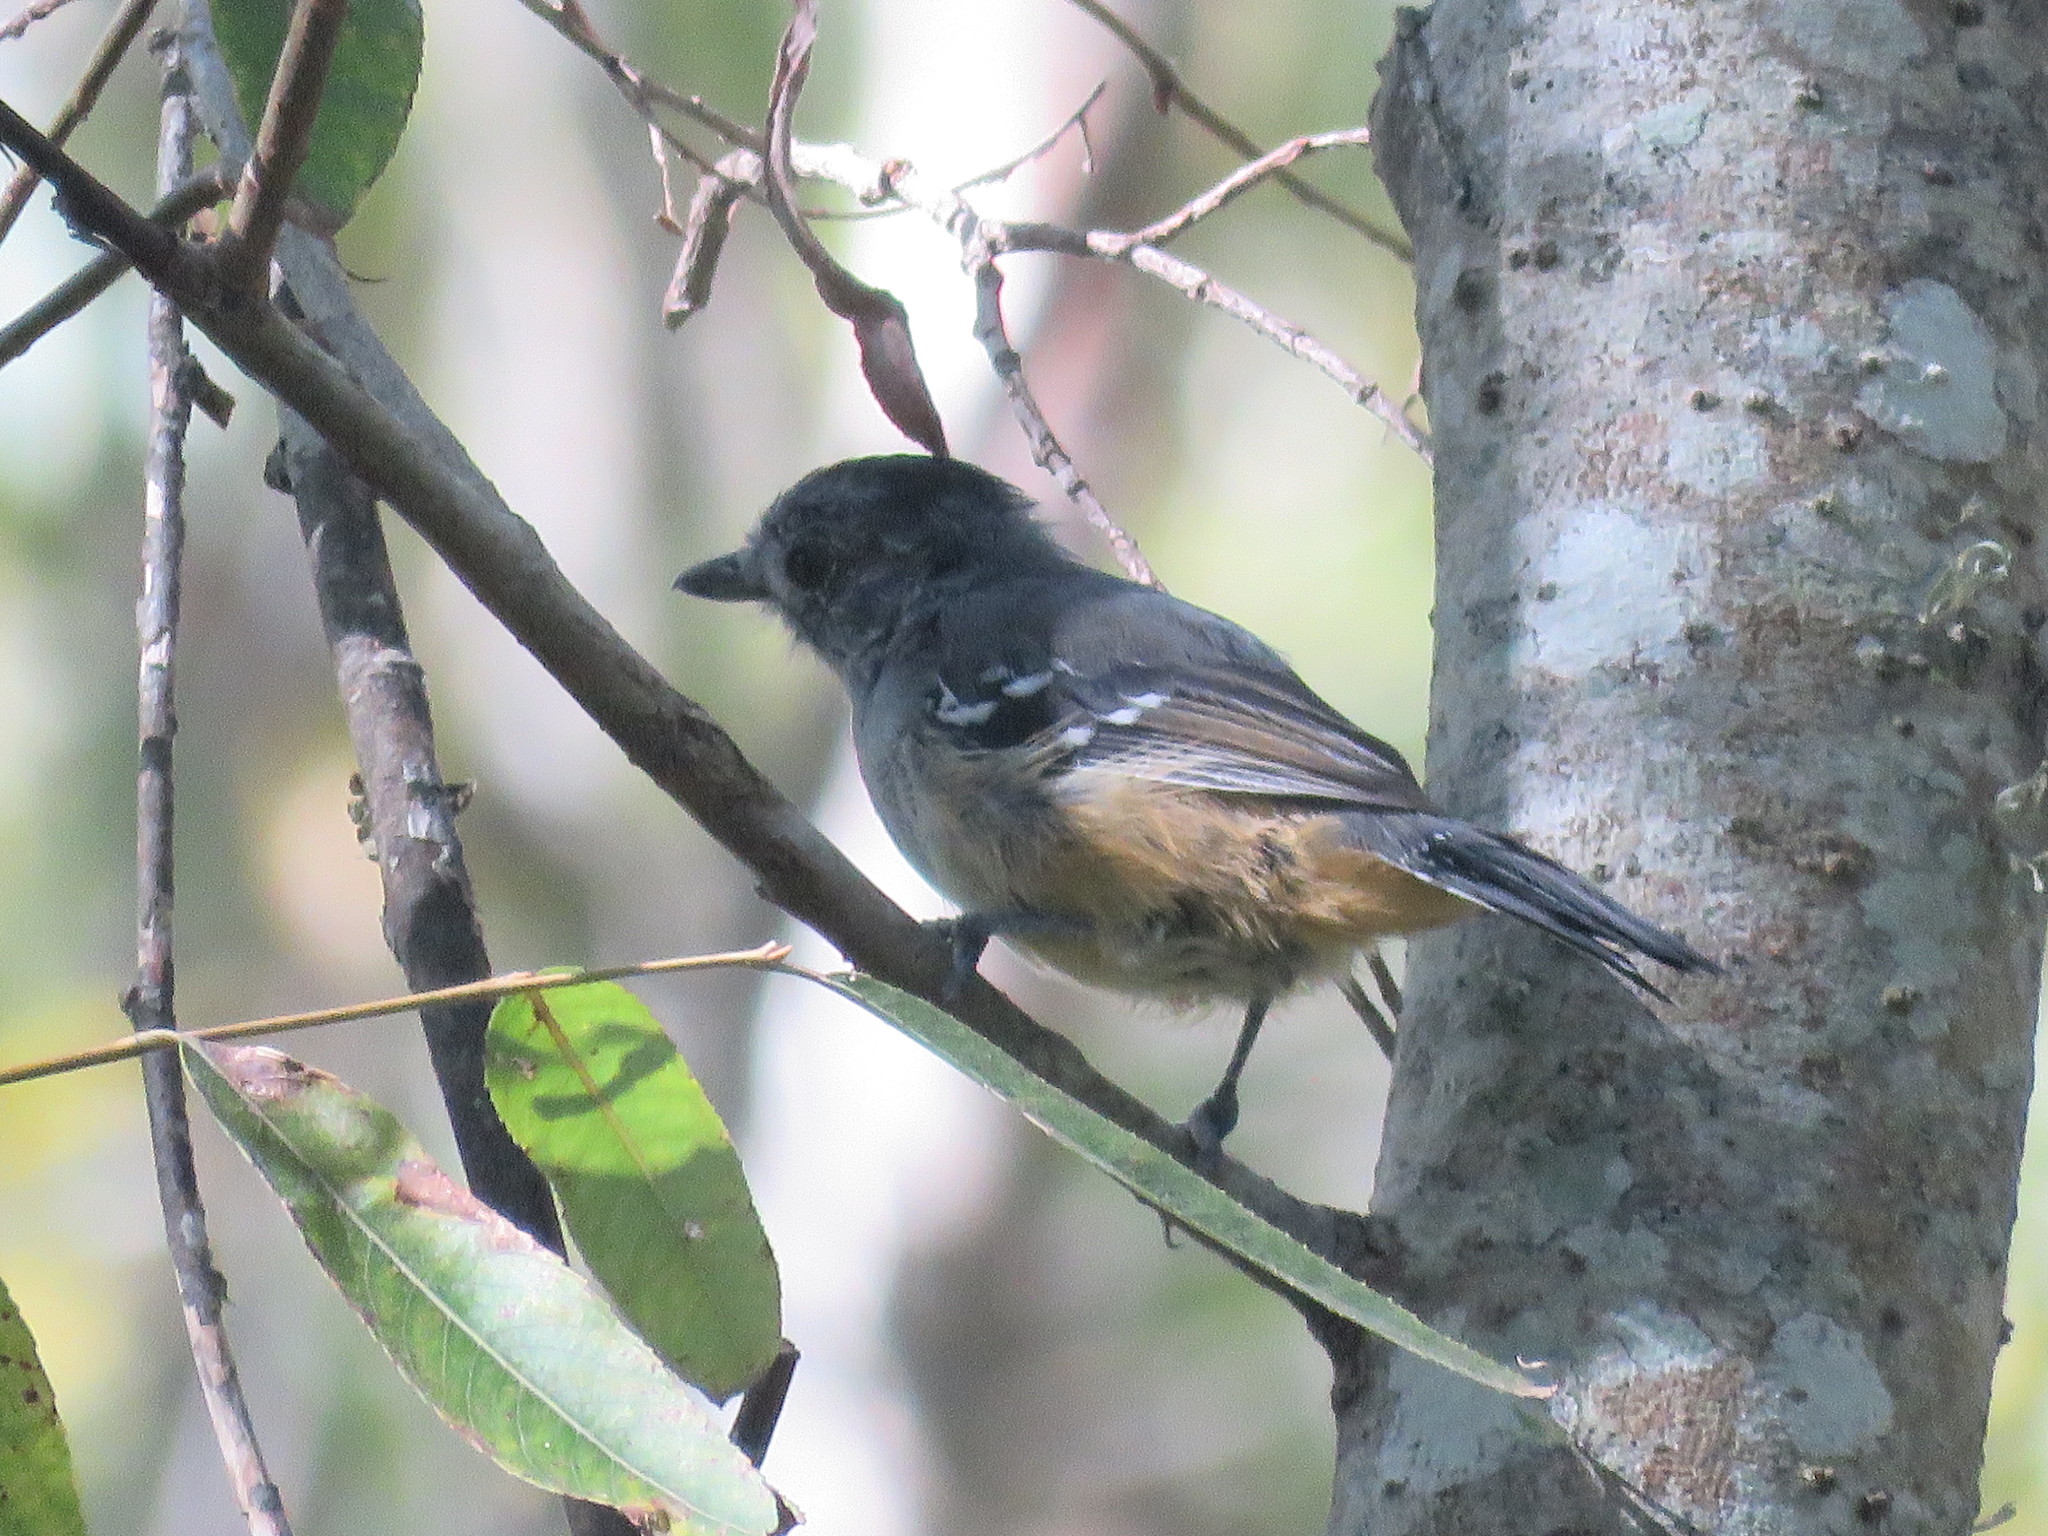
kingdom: Animalia
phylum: Chordata
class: Aves
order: Passeriformes
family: Thamnophilidae
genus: Thamnophilus
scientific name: Thamnophilus caerulescens
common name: Variable antshrike
